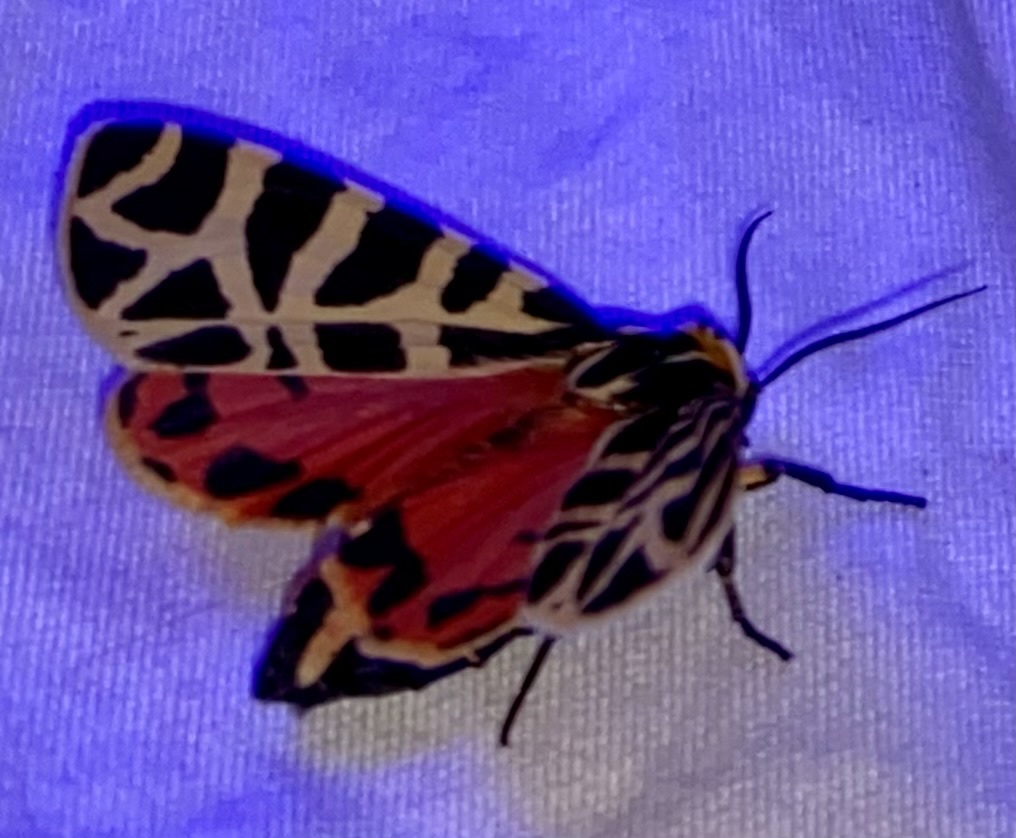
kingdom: Animalia
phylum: Arthropoda
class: Insecta
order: Lepidoptera
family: Erebidae
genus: Apantesis
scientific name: Apantesis incorrupta
